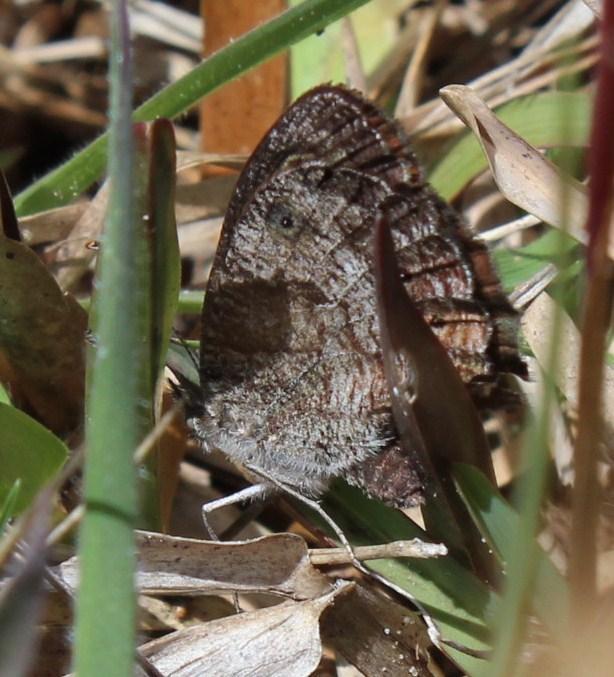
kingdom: Animalia
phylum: Arthropoda
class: Insecta
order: Lepidoptera
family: Nymphalidae
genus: Pseudonympha
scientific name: Pseudonympha magus
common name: Silver-bottom brown
